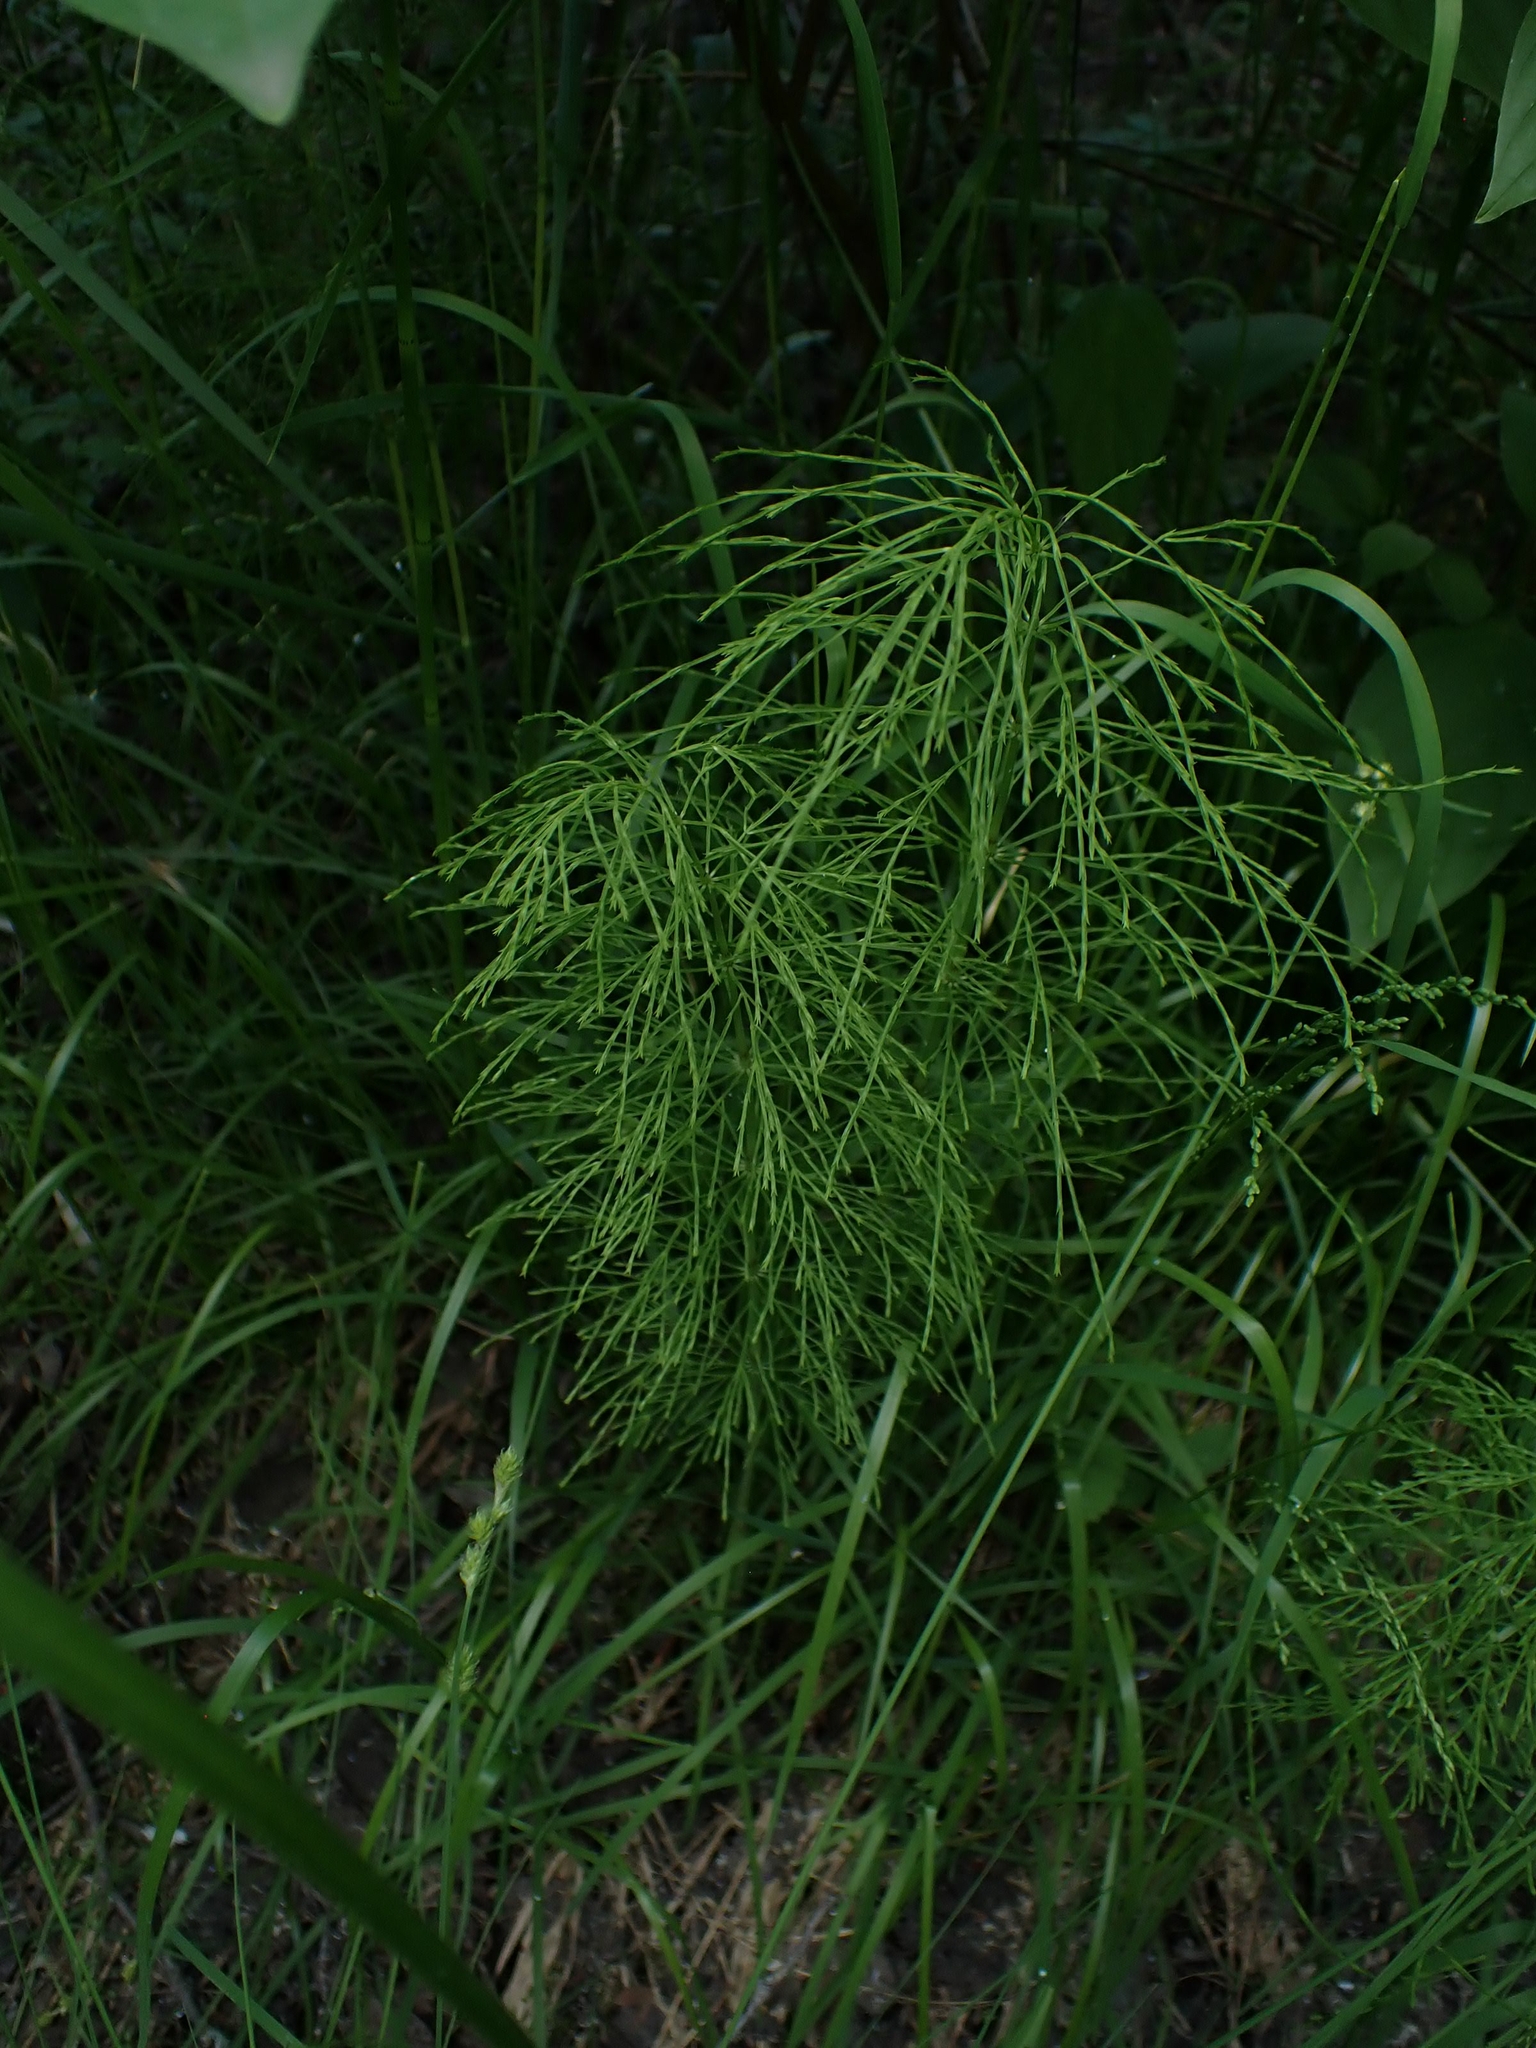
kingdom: Plantae
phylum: Tracheophyta
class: Polypodiopsida
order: Equisetales
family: Equisetaceae
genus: Equisetum
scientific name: Equisetum sylvaticum
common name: Wood horsetail
